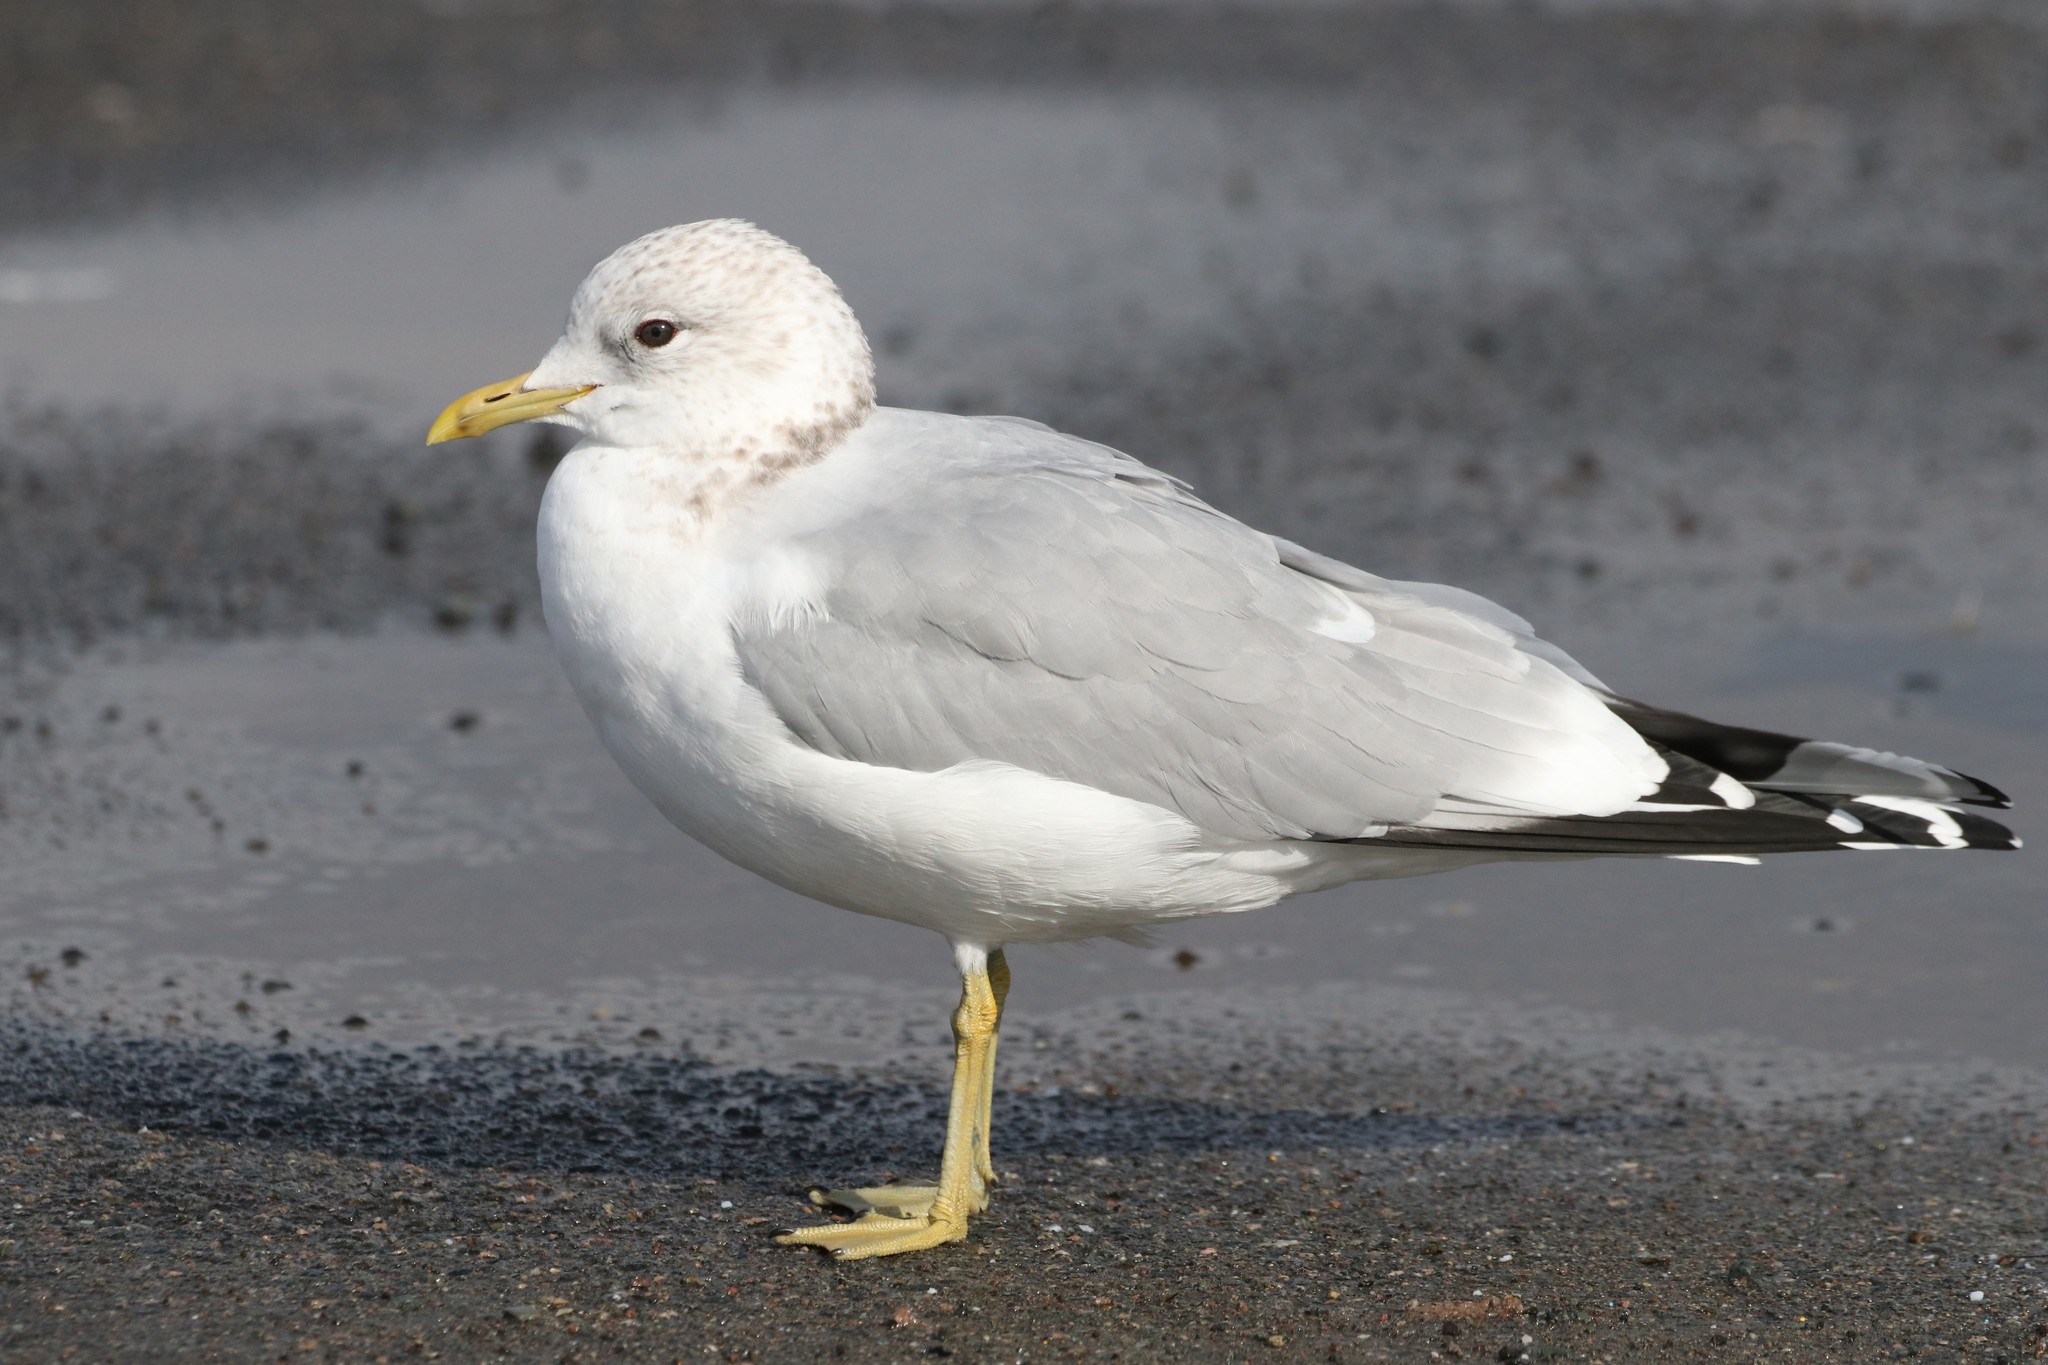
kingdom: Animalia
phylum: Chordata
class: Aves
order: Charadriiformes
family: Laridae
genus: Larus
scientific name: Larus canus
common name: Mew gull
